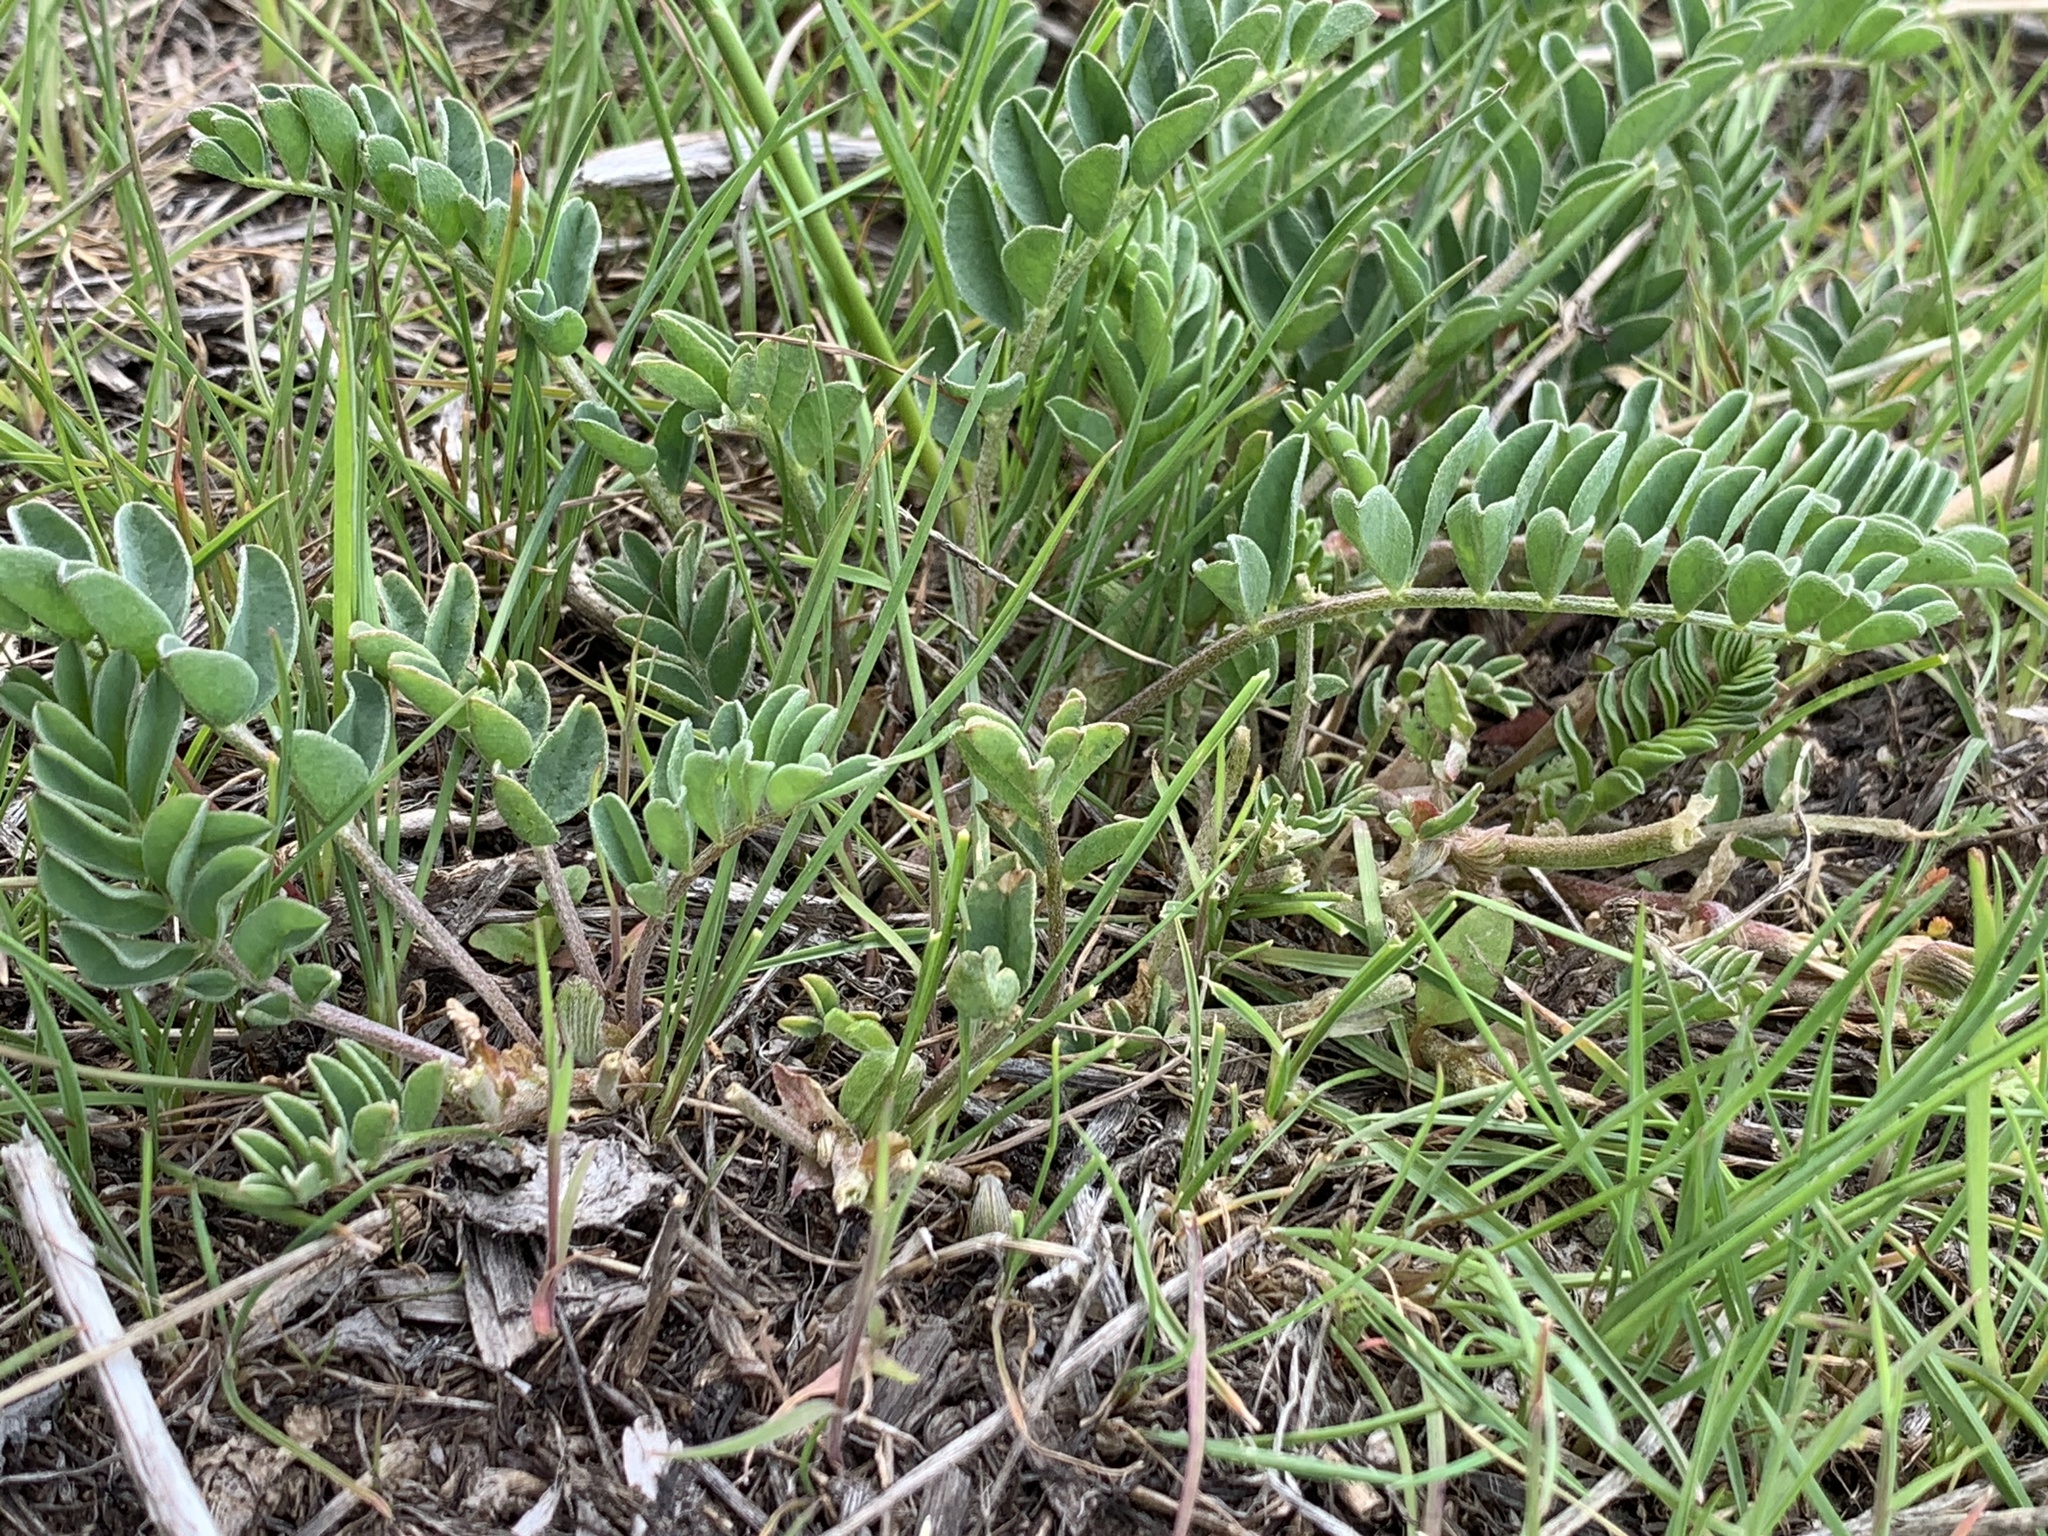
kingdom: Plantae
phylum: Tracheophyta
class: Magnoliopsida
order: Fabales
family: Fabaceae
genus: Astragalus
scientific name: Astragalus cibarius
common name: Browse milk-vetch
